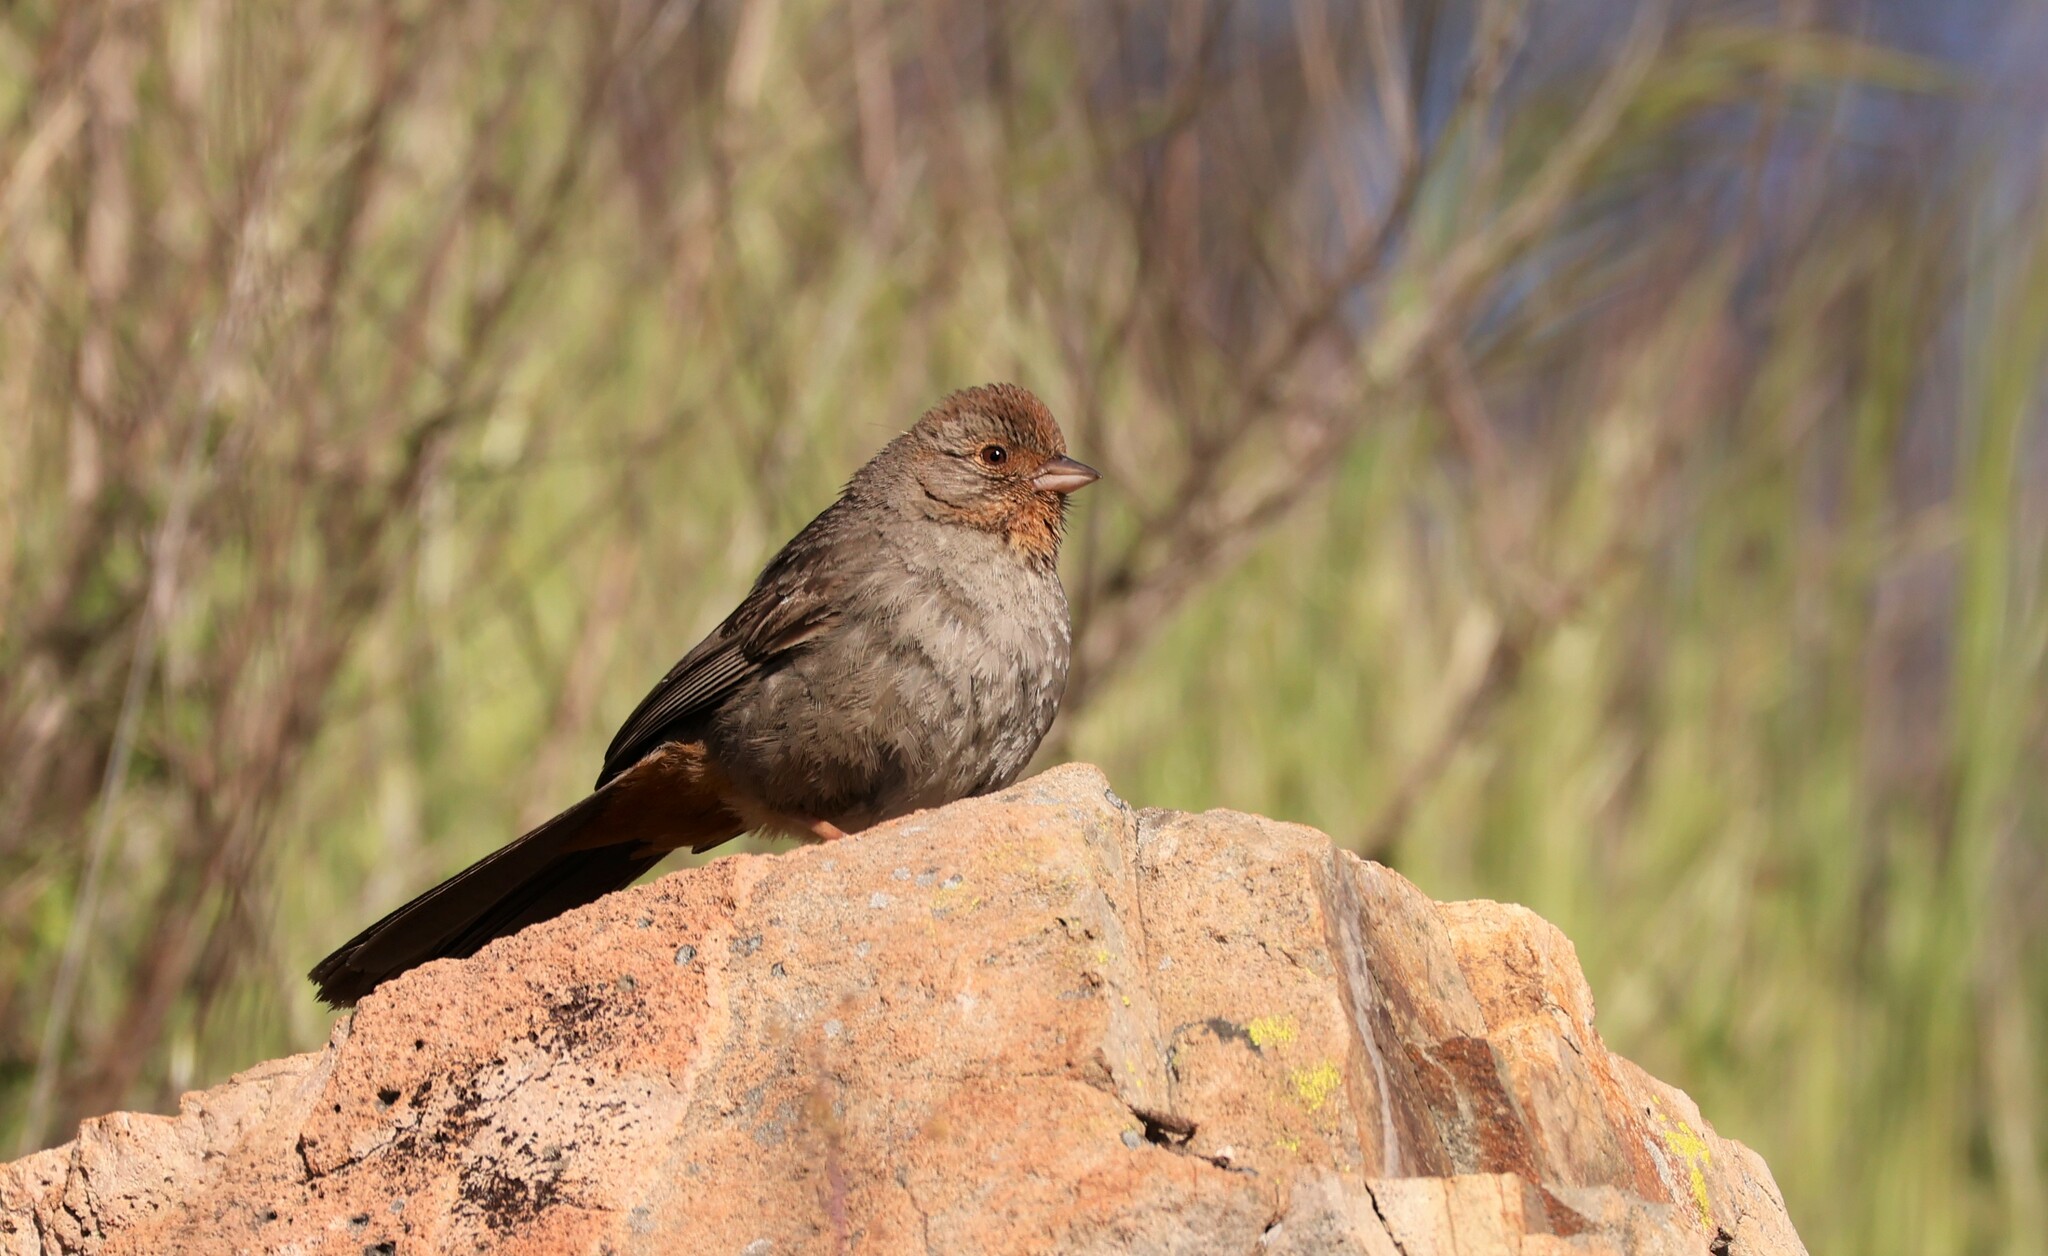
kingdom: Animalia
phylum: Chordata
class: Aves
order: Passeriformes
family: Passerellidae
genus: Melozone
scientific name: Melozone crissalis
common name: California towhee
